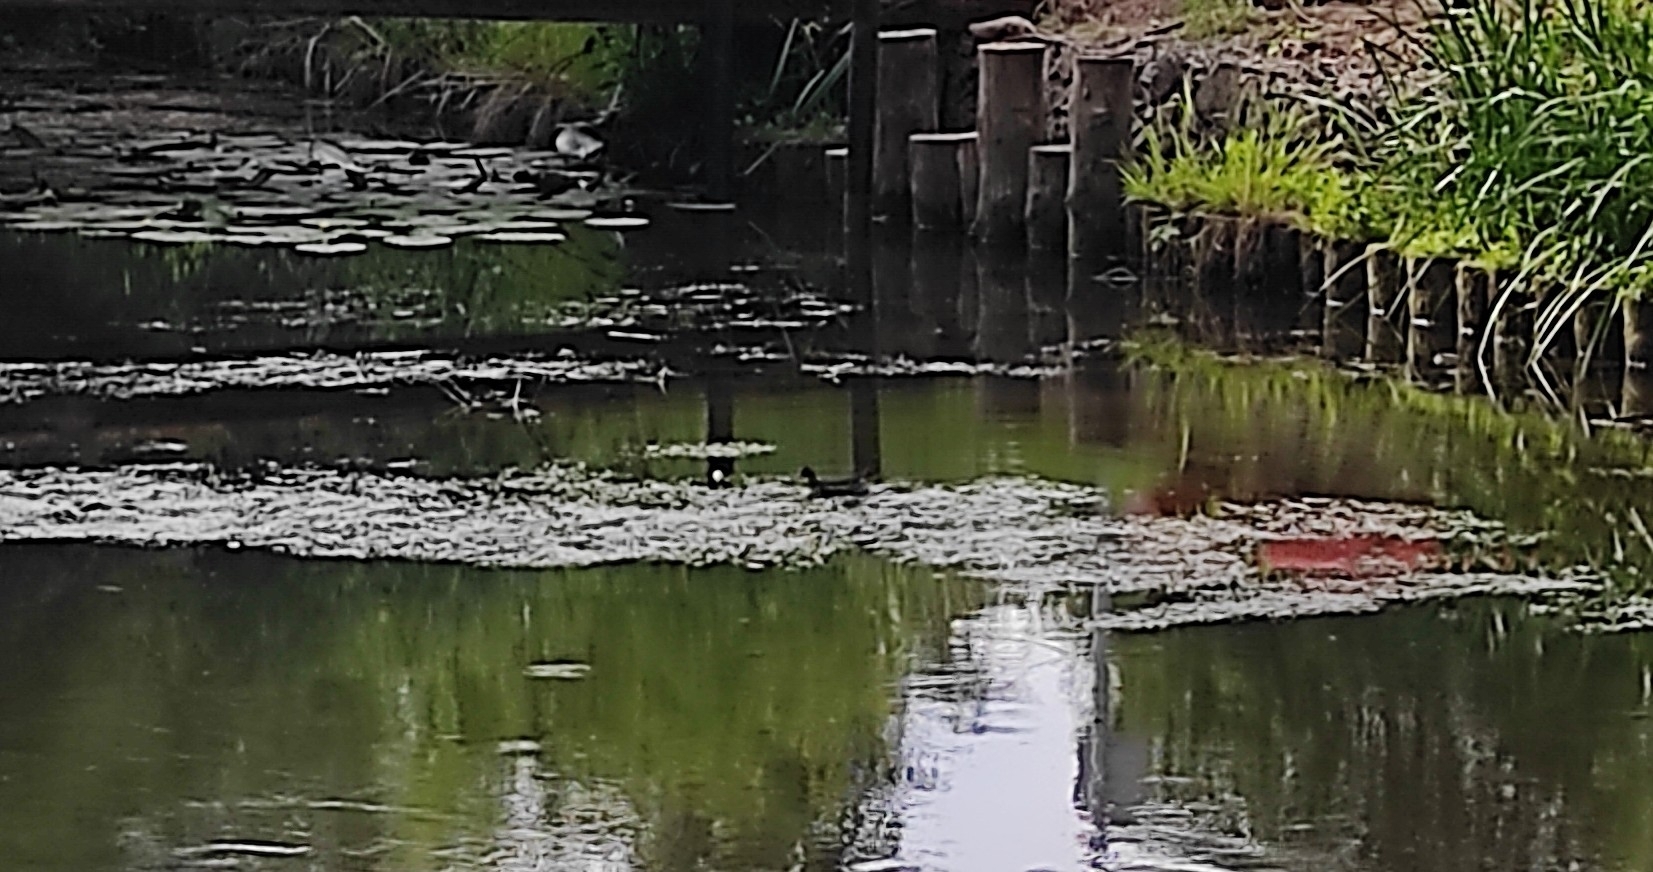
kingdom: Animalia
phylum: Chordata
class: Aves
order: Gruiformes
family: Rallidae
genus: Gallinula
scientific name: Gallinula chloropus
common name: Common moorhen
